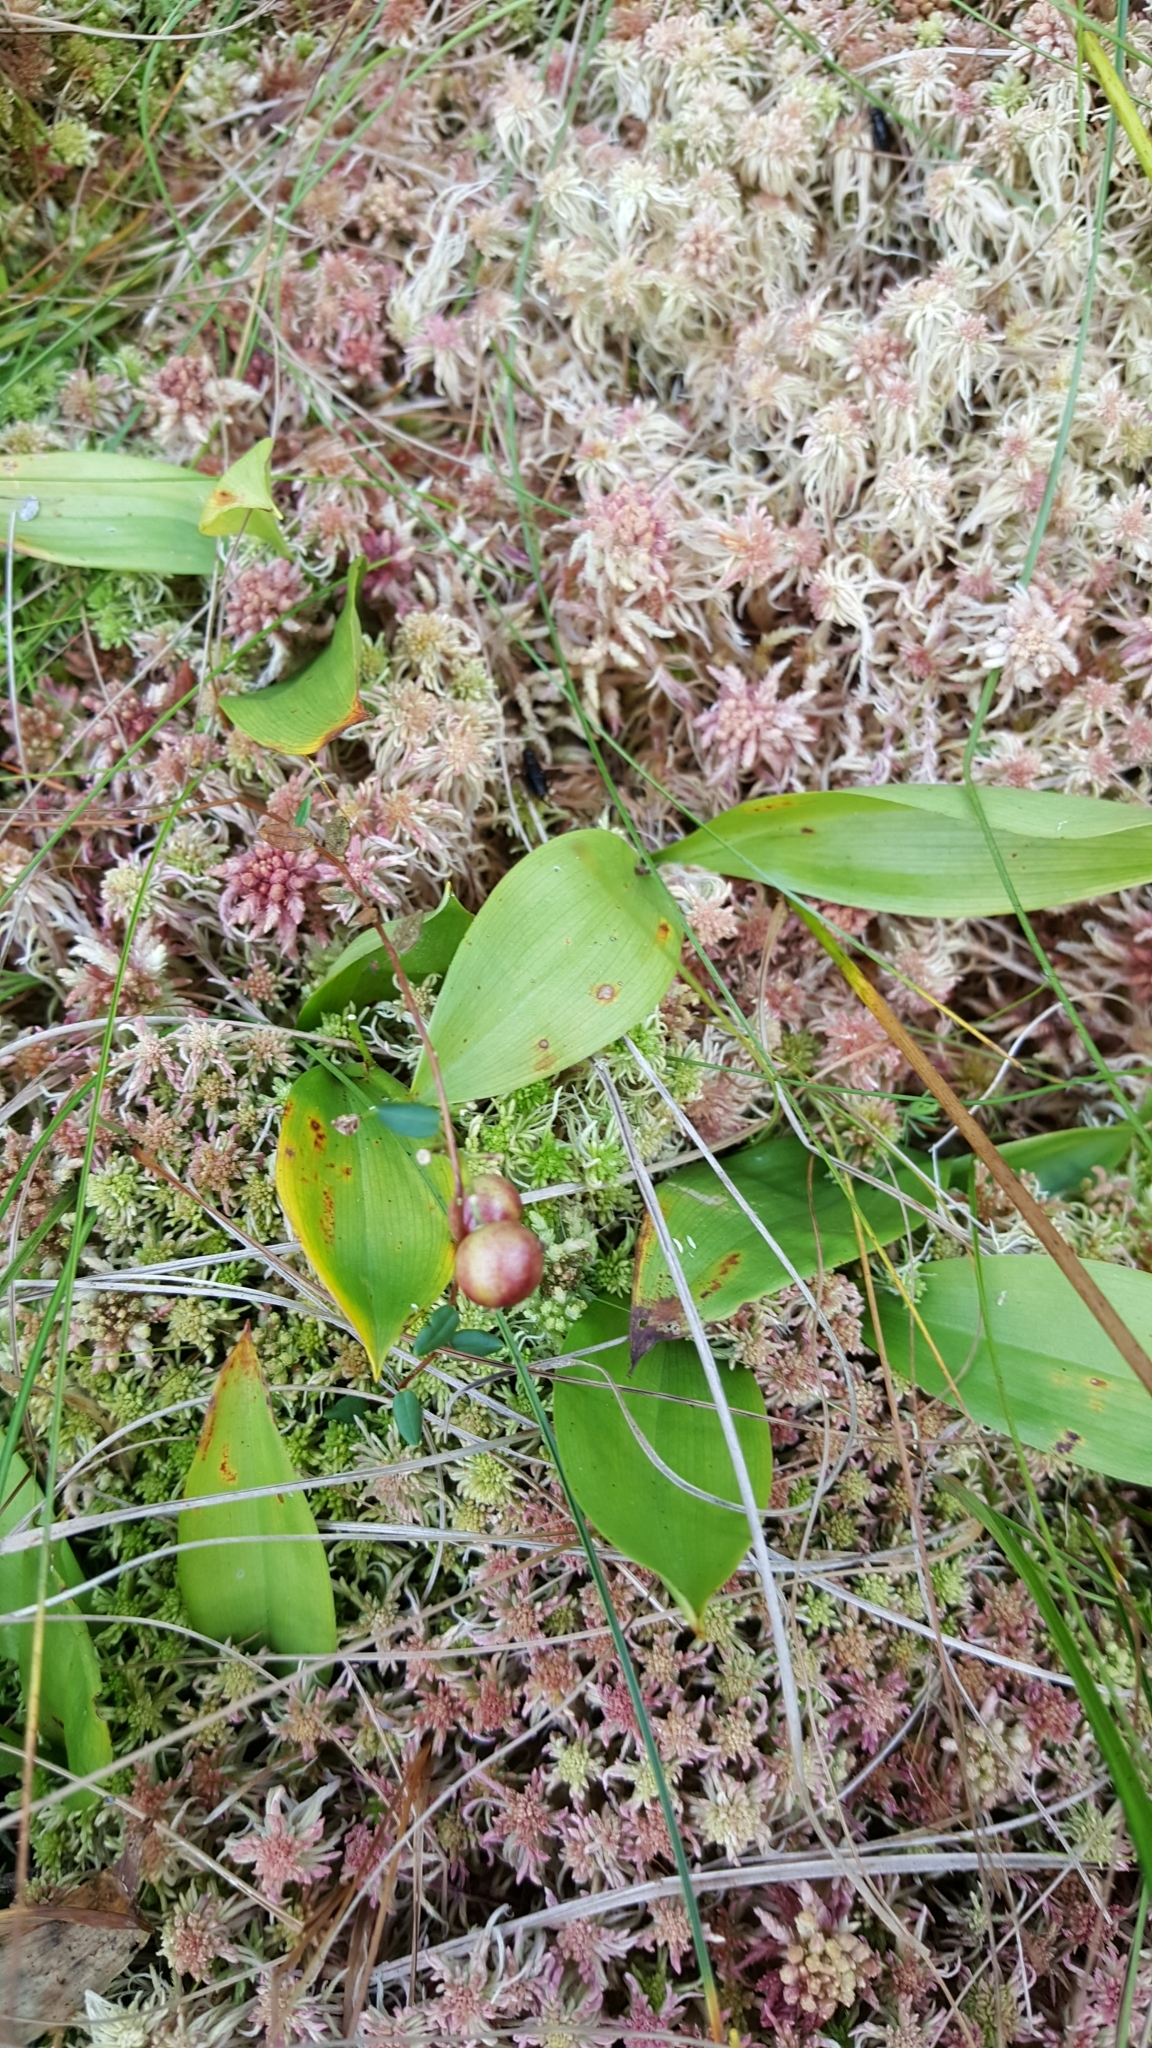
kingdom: Plantae
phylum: Tracheophyta
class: Liliopsida
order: Asparagales
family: Asparagaceae
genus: Maianthemum
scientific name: Maianthemum trifolium
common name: Swamp false solomon's seal
